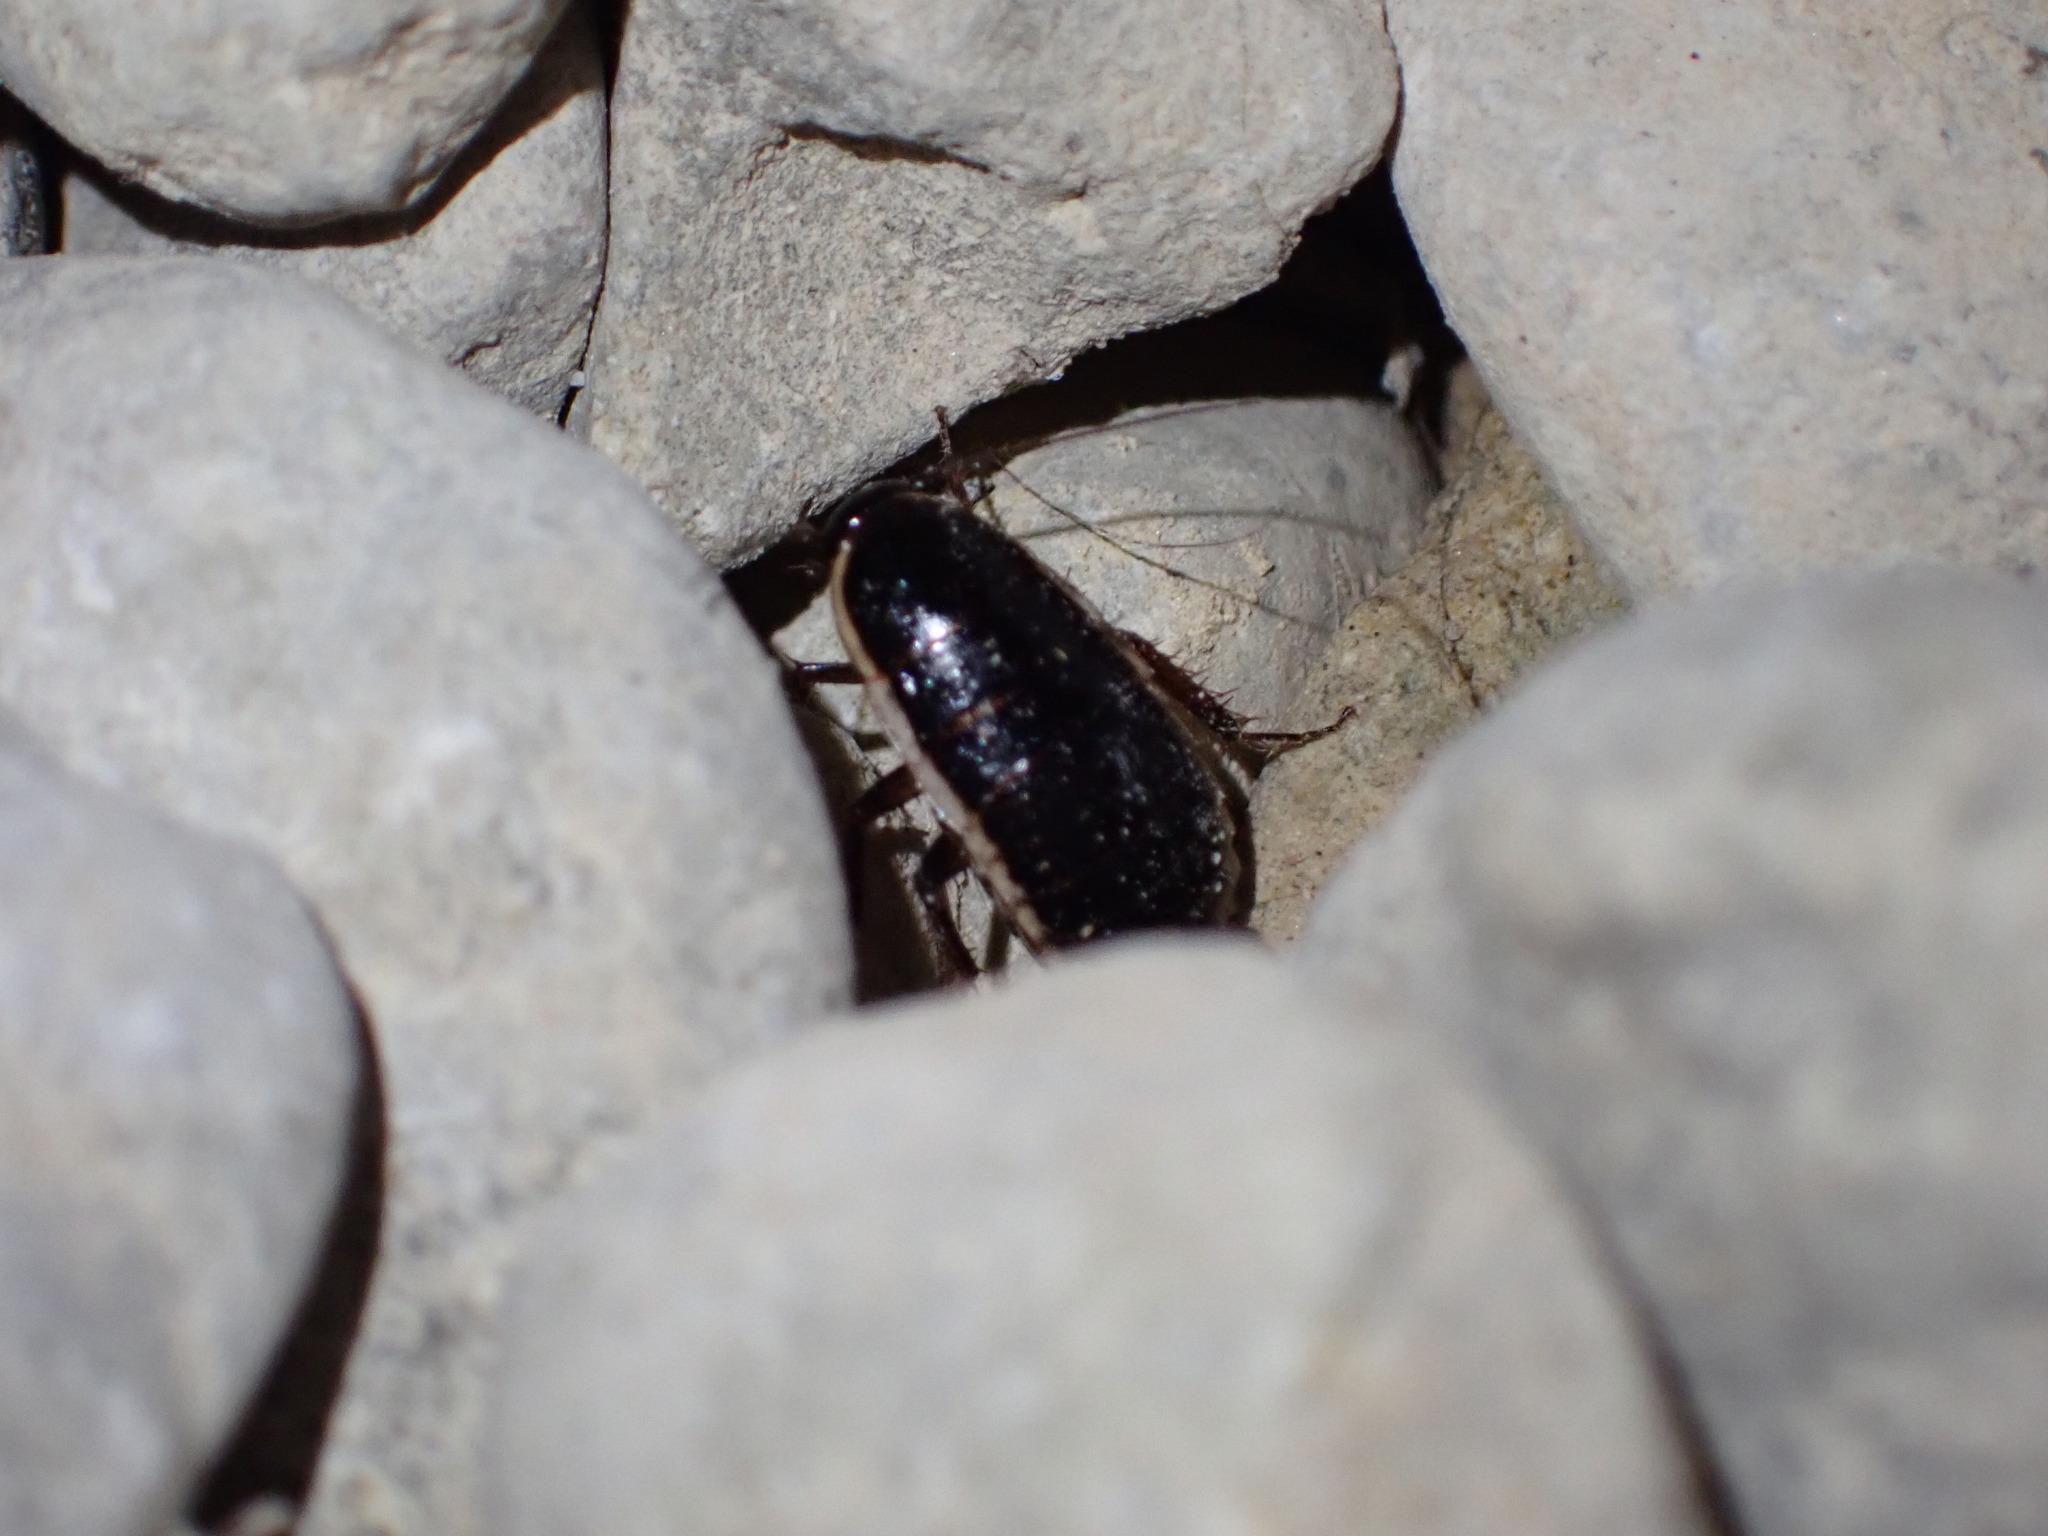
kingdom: Animalia
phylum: Arthropoda
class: Insecta
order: Blattodea
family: Ectobiidae
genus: Loboptera
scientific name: Loboptera decipiens
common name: Lobe-winged cockroach
